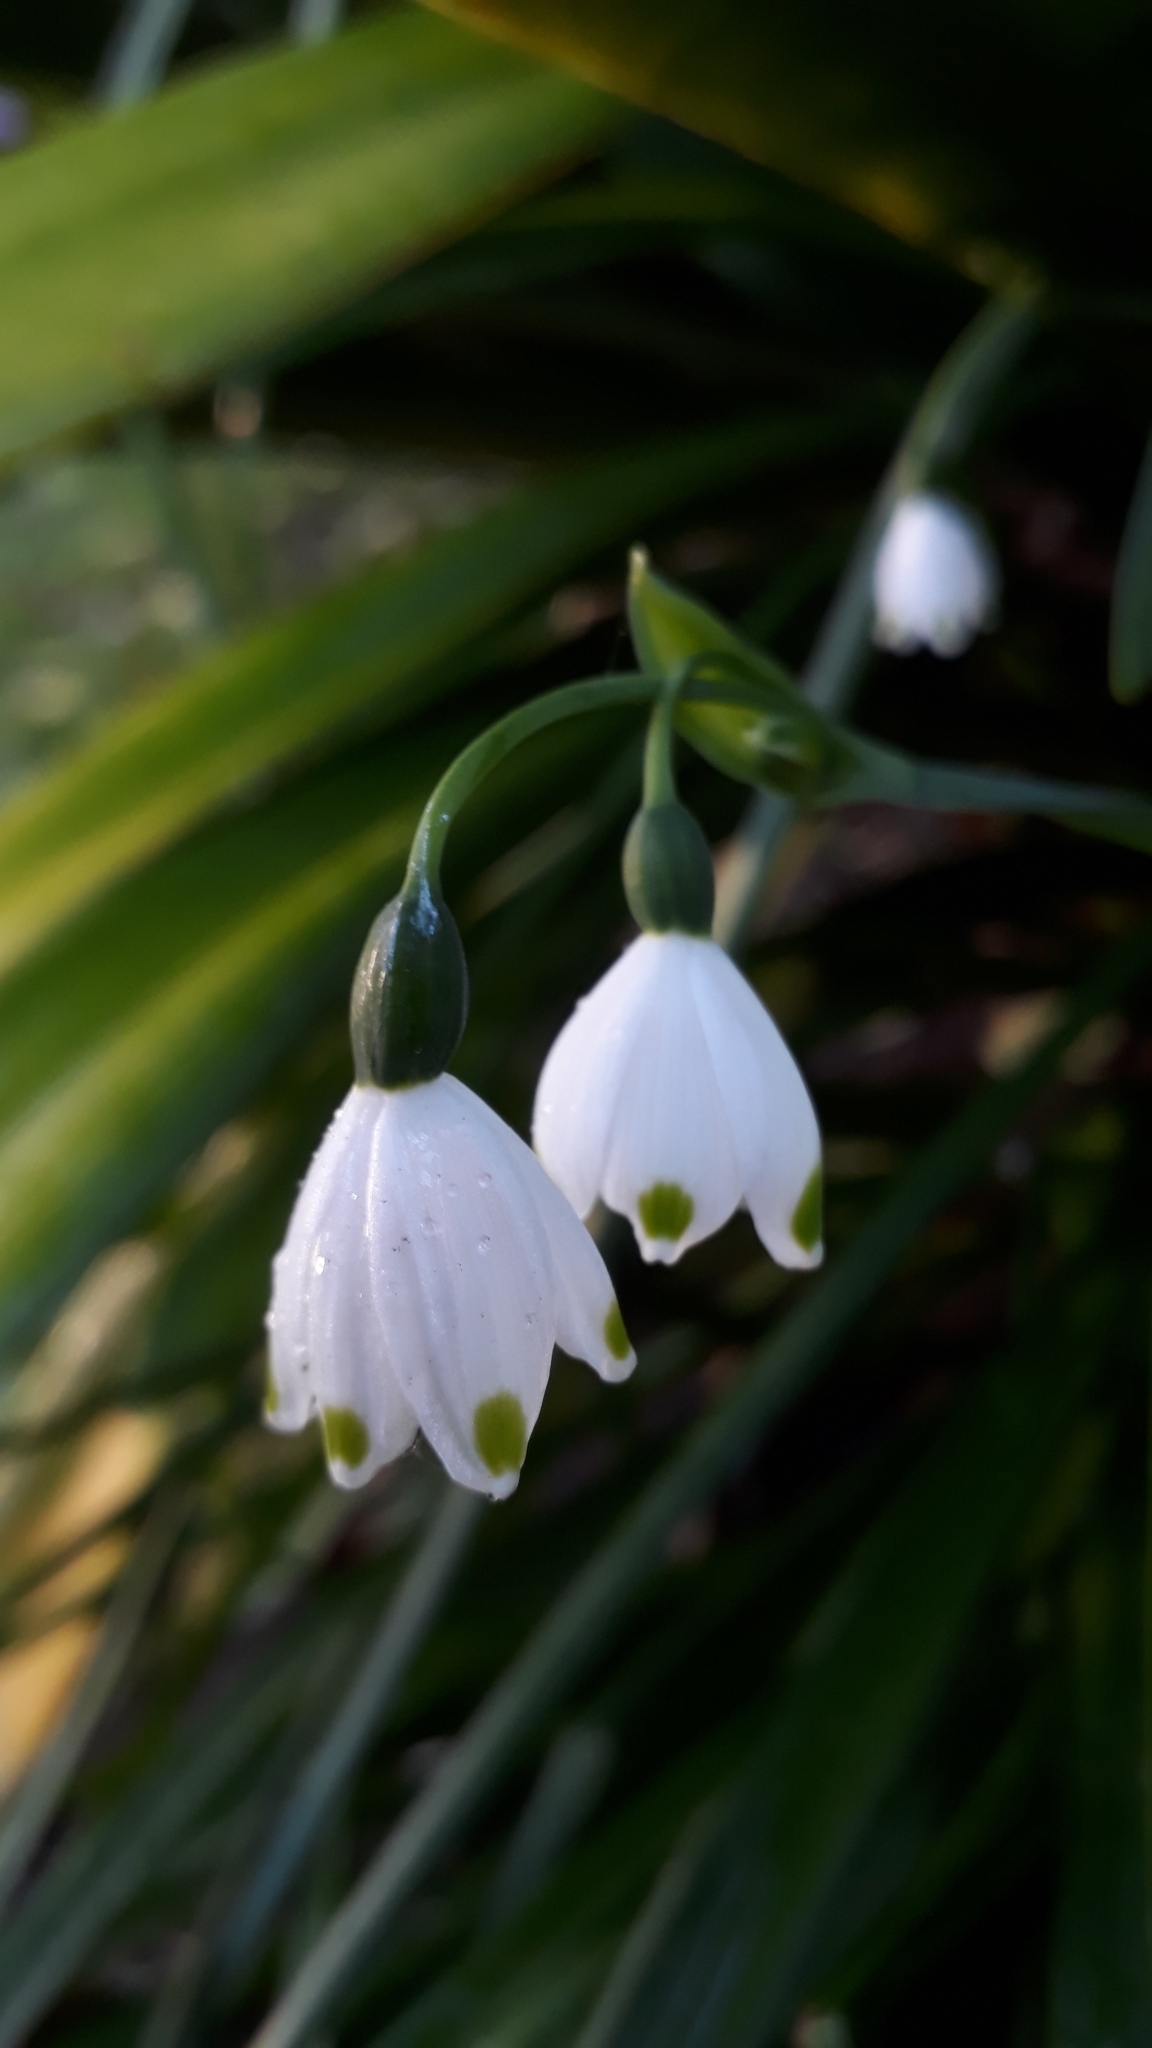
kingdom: Plantae
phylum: Tracheophyta
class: Liliopsida
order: Asparagales
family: Amaryllidaceae
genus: Leucojum
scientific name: Leucojum aestivum
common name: Summer snowflake
